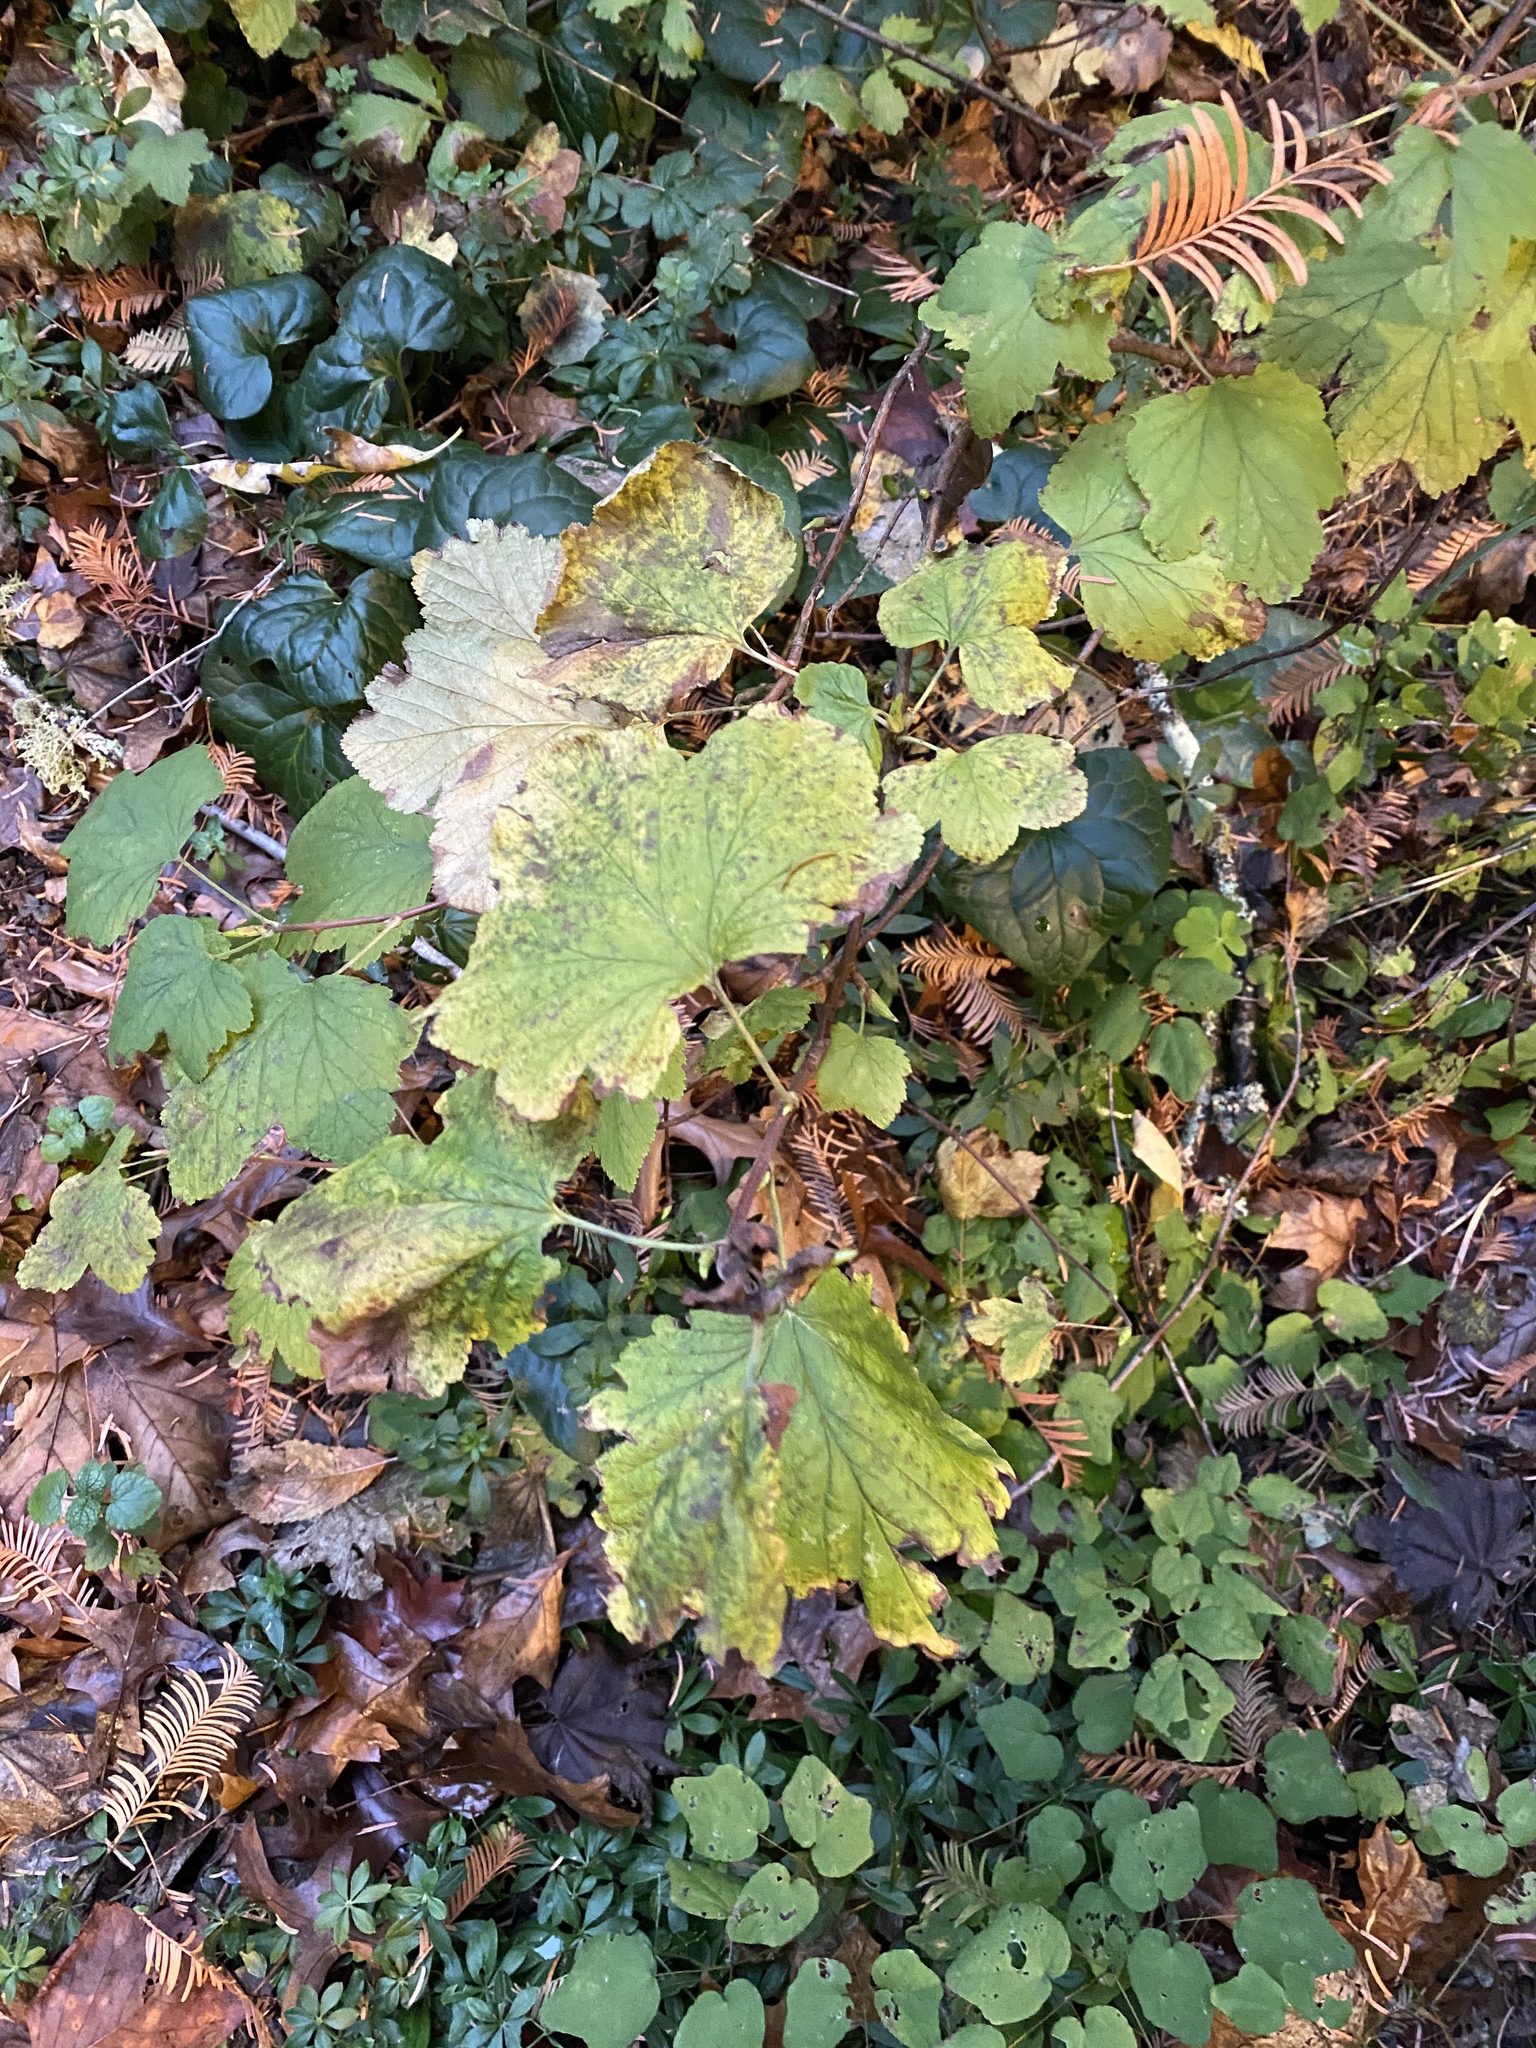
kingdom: Plantae
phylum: Tracheophyta
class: Magnoliopsida
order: Rosales
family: Rosaceae
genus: Rubus
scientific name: Rubus parviflorus
